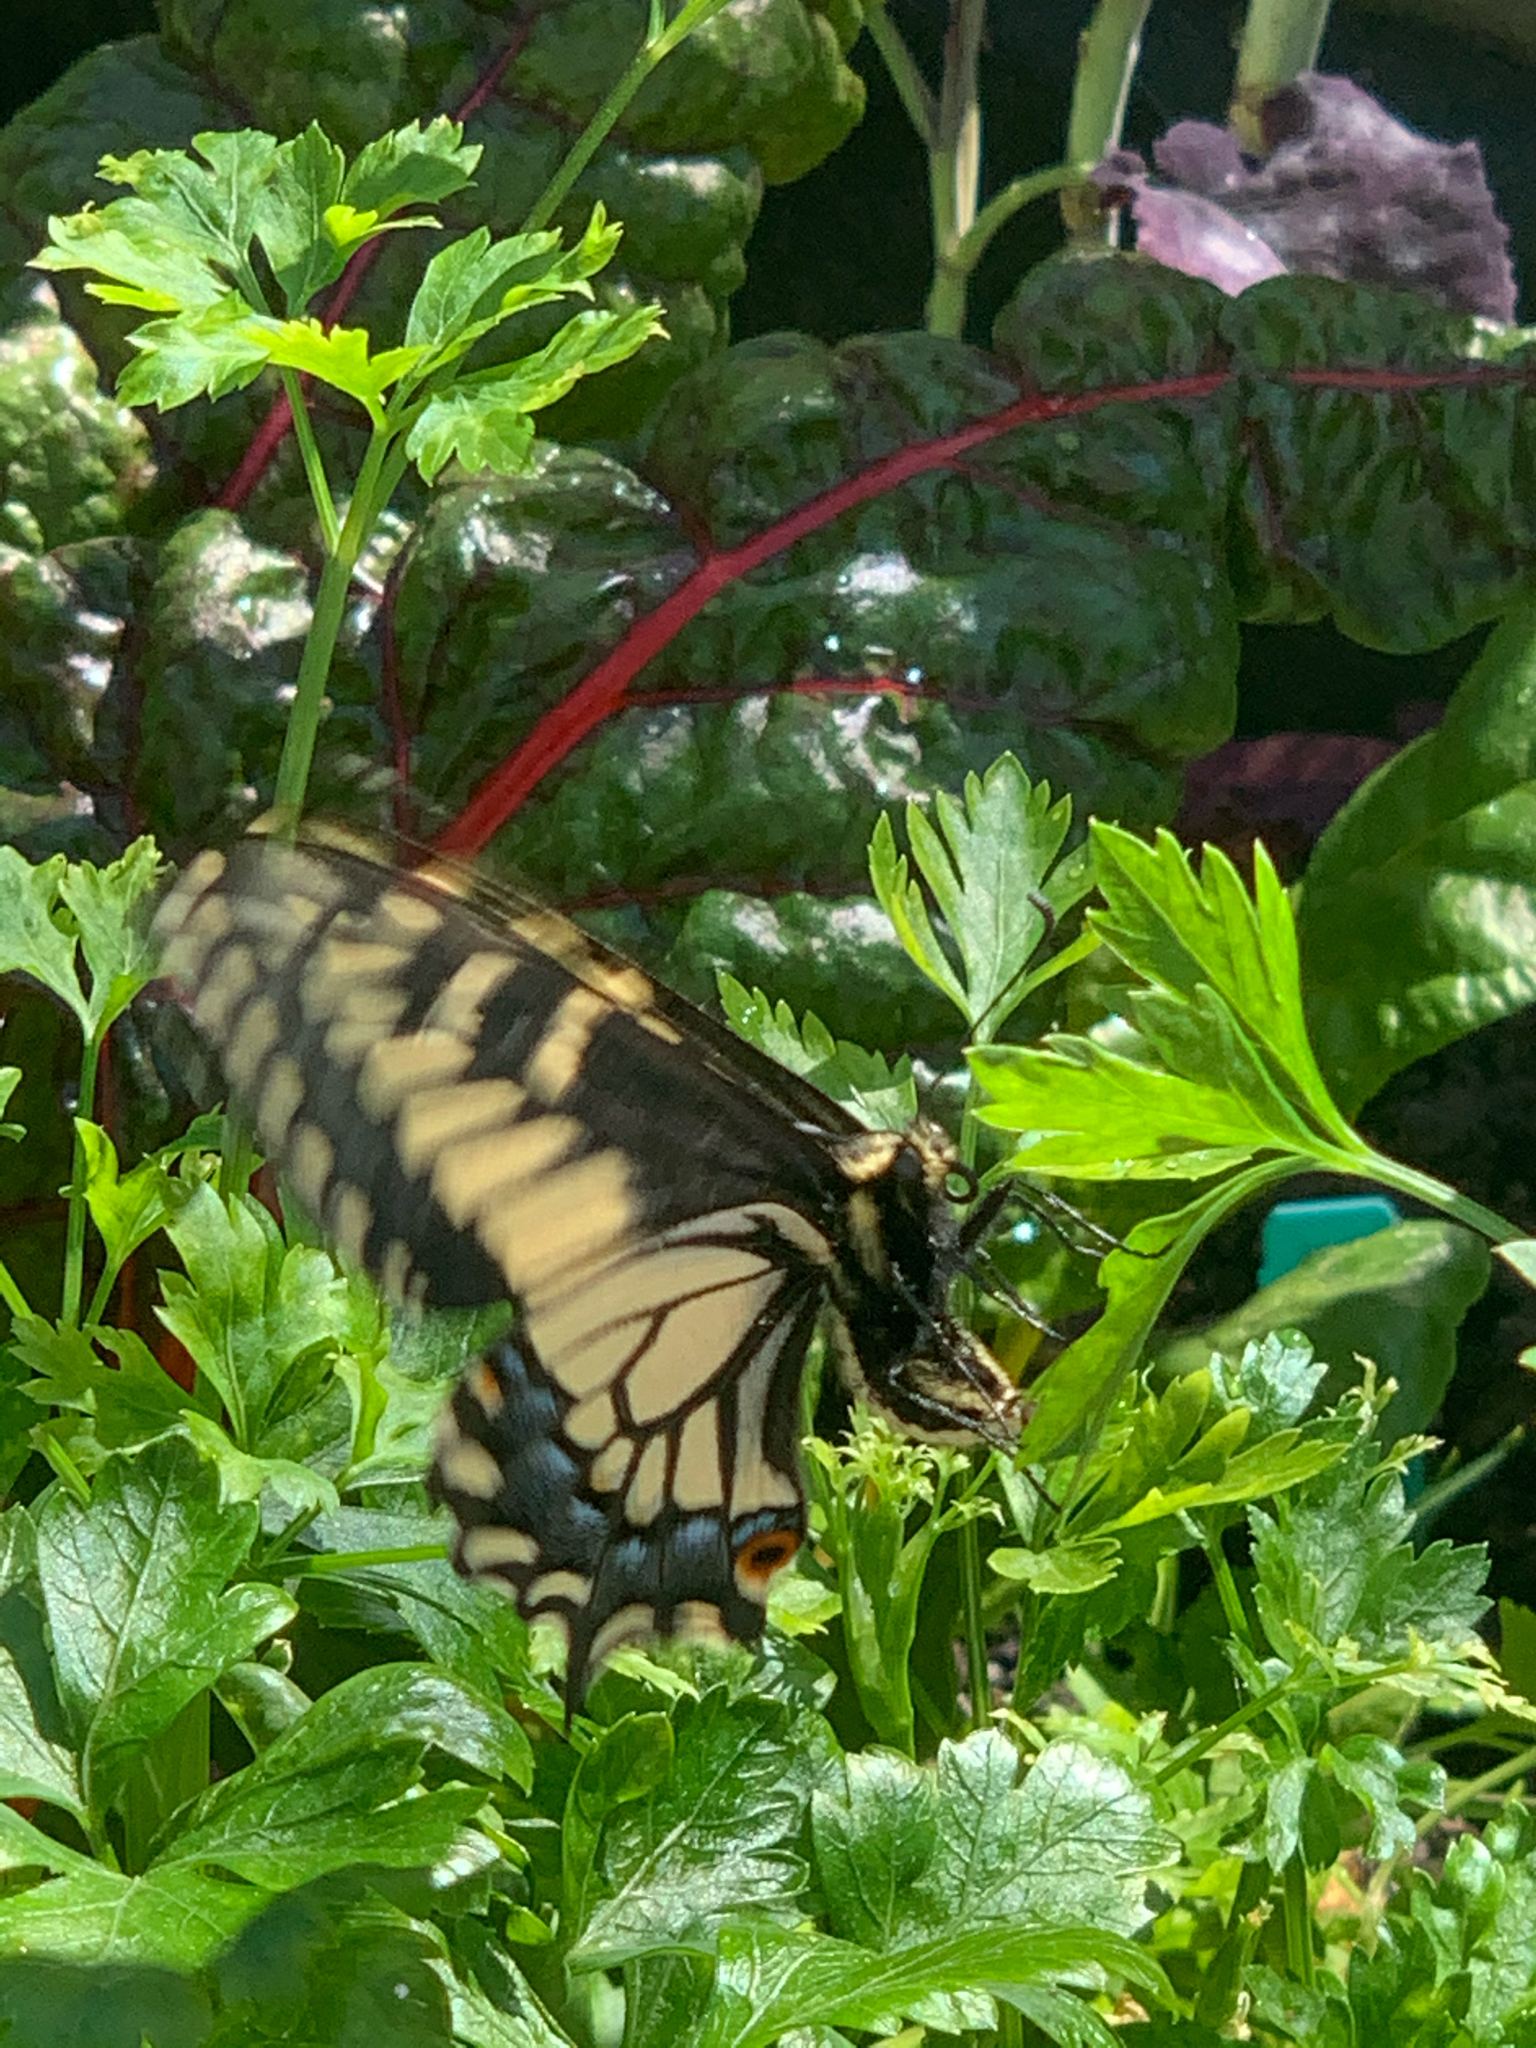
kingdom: Animalia
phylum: Arthropoda
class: Insecta
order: Lepidoptera
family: Papilionidae
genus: Papilio
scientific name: Papilio zelicaon
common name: Anise swallowtail
